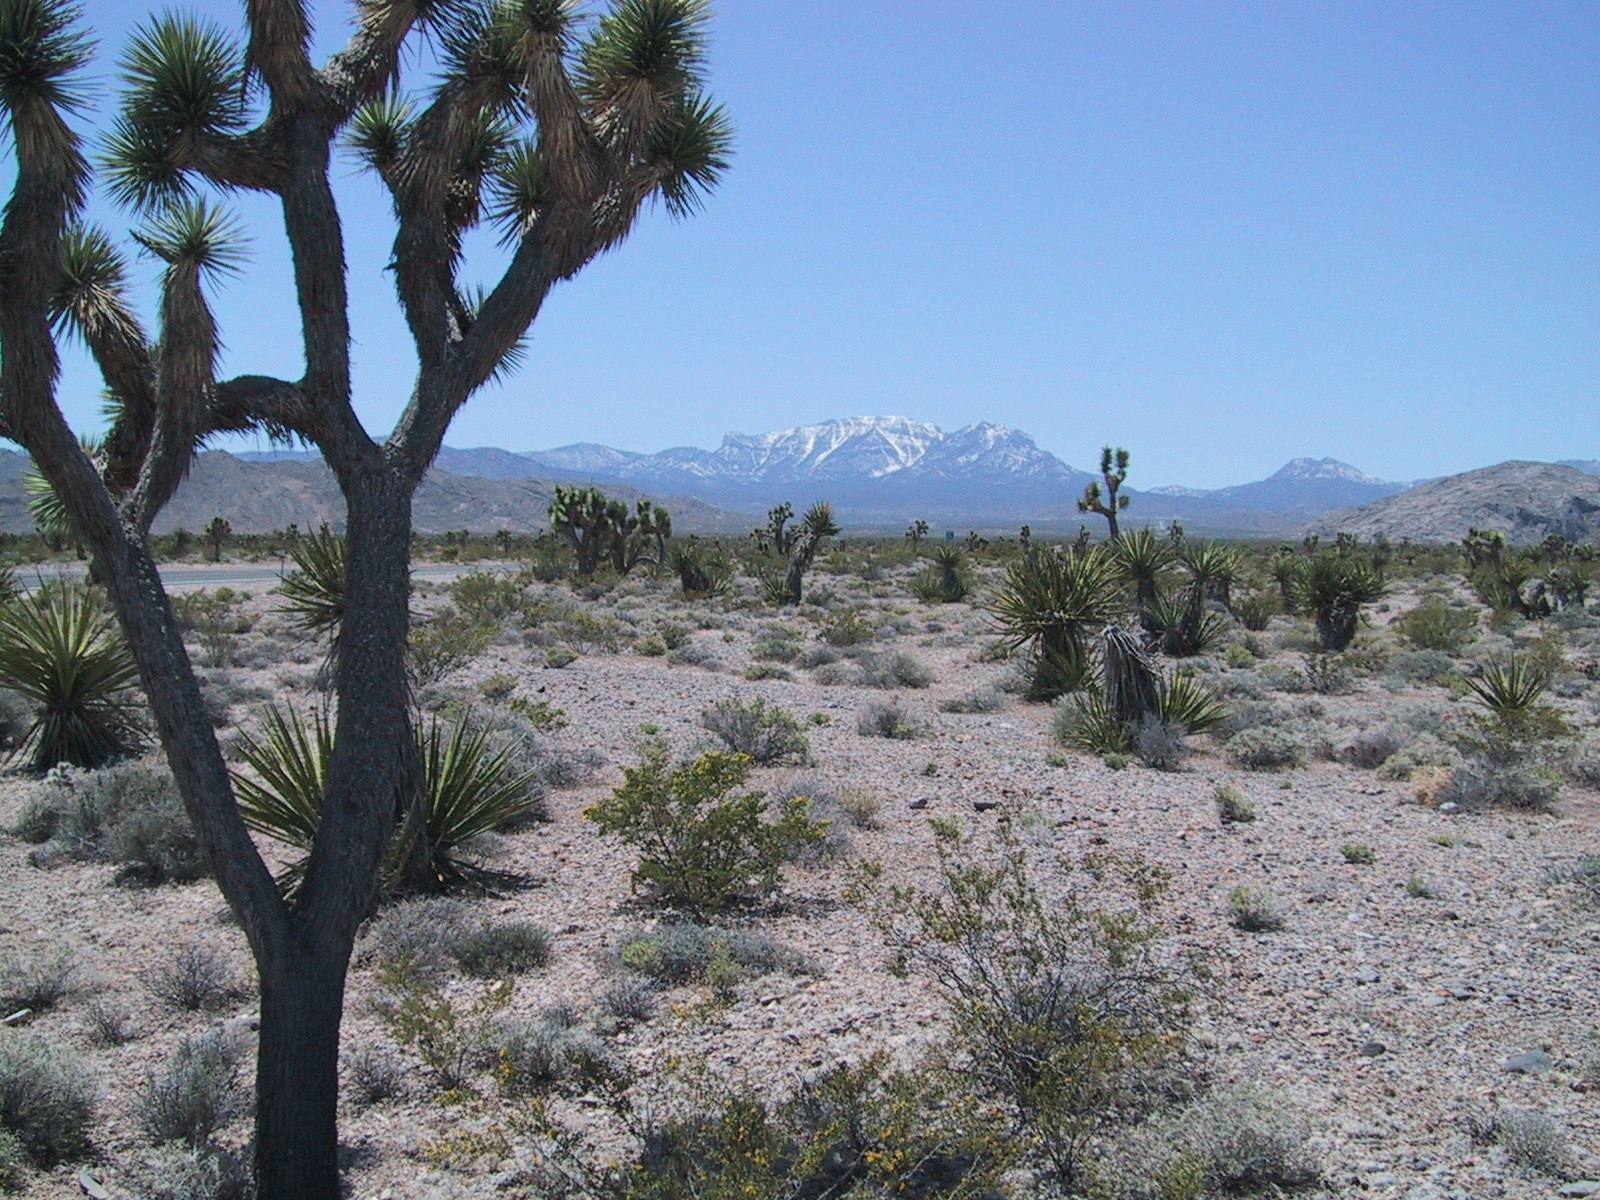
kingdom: Plantae
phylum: Tracheophyta
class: Liliopsida
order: Asparagales
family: Asparagaceae
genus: Yucca
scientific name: Yucca brevifolia
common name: Joshua tree
